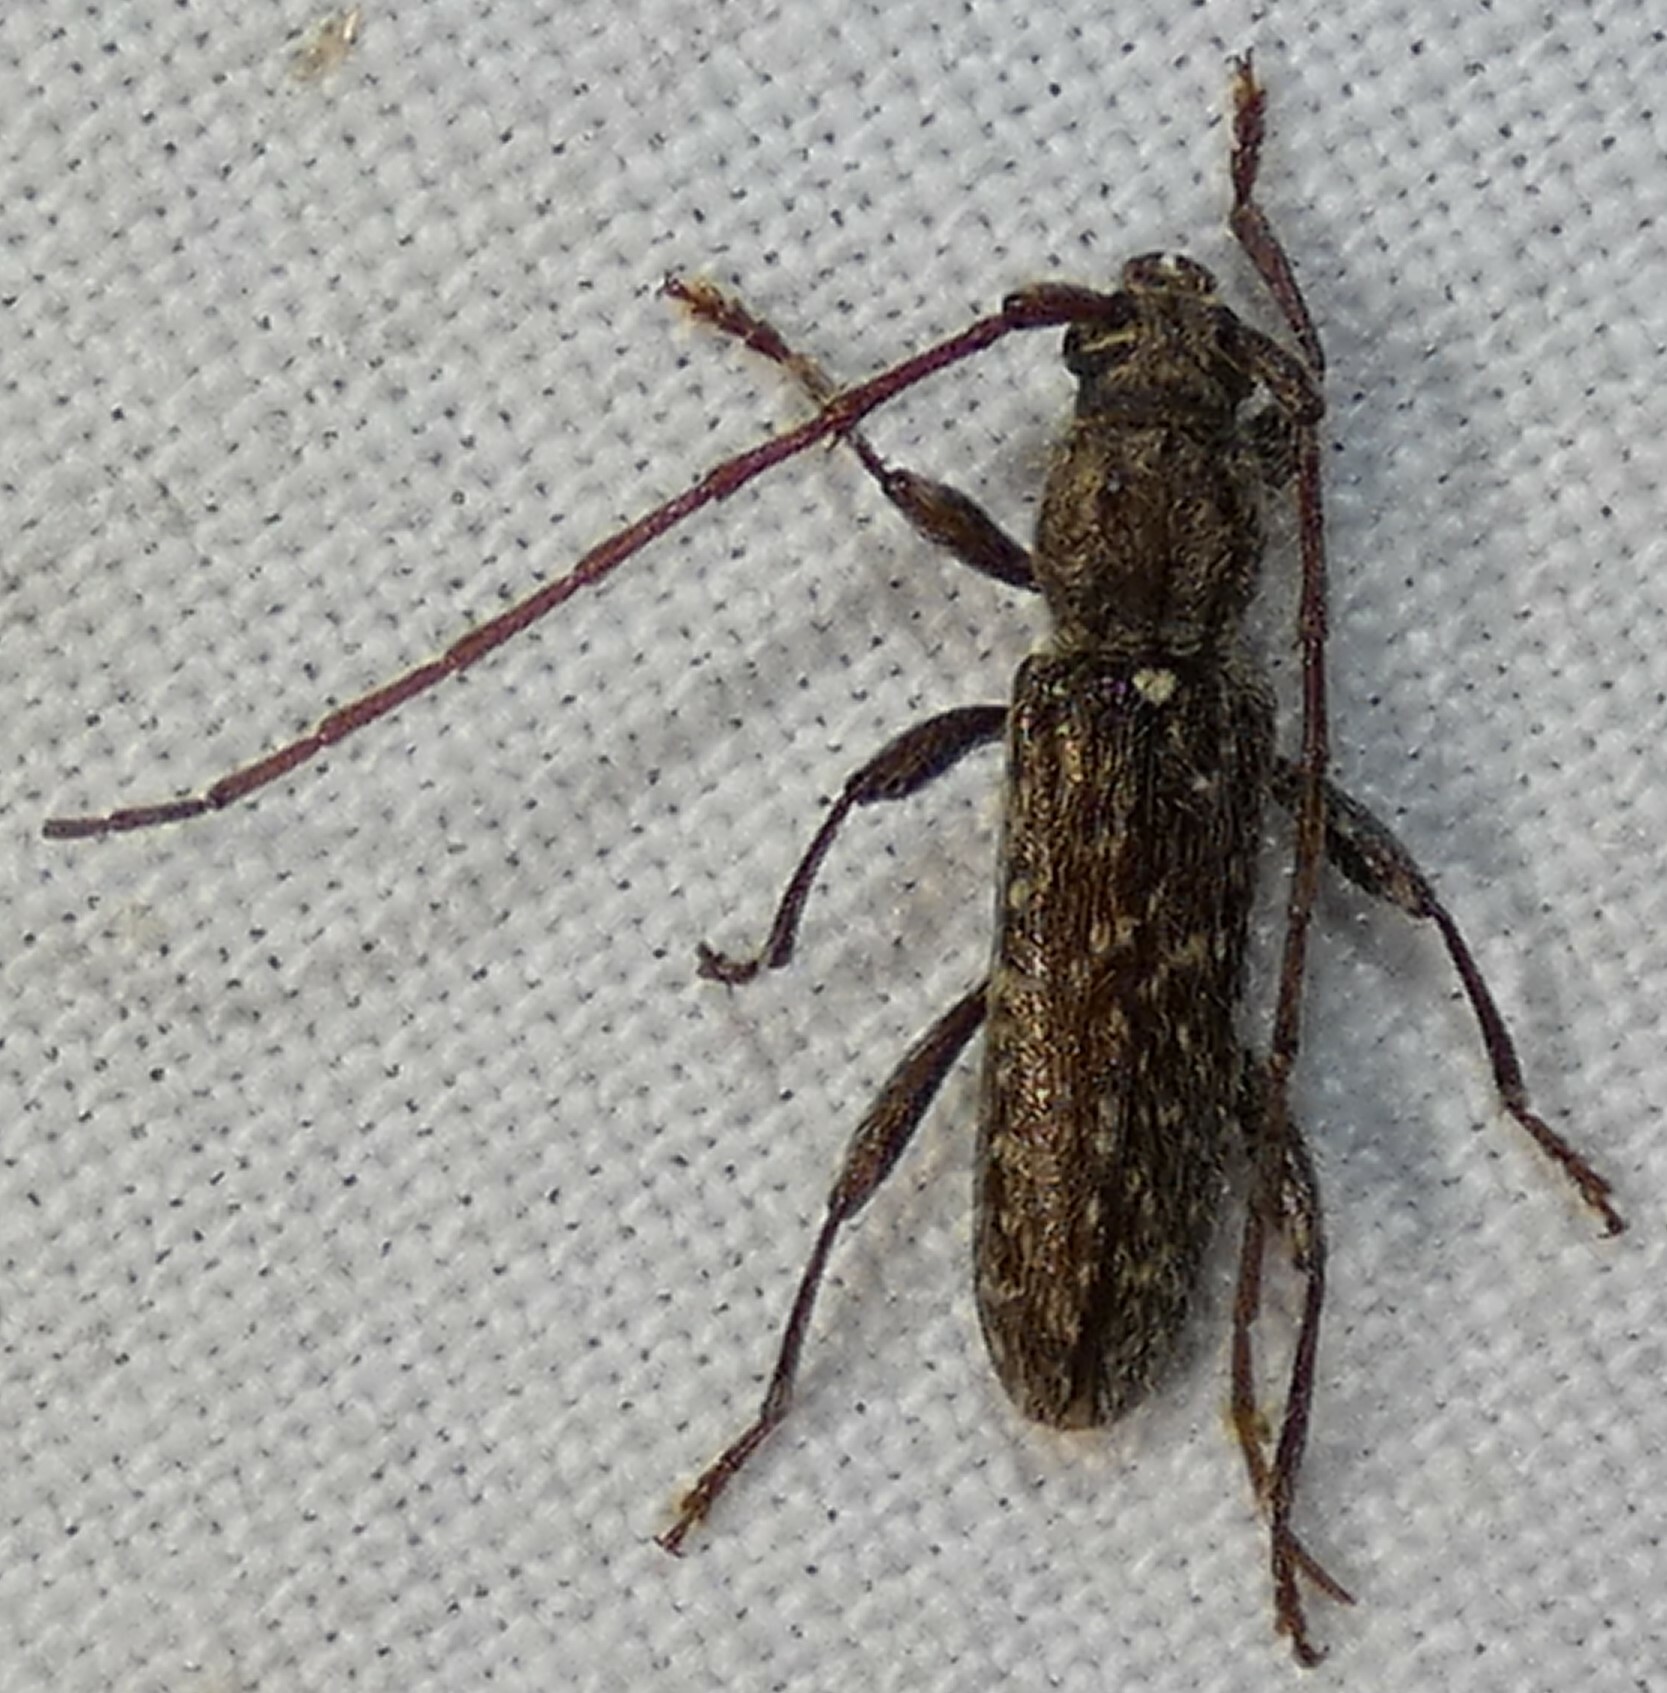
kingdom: Animalia
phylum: Arthropoda
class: Insecta
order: Coleoptera
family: Cerambycidae
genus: Anelaphus
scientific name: Anelaphus pumilus
